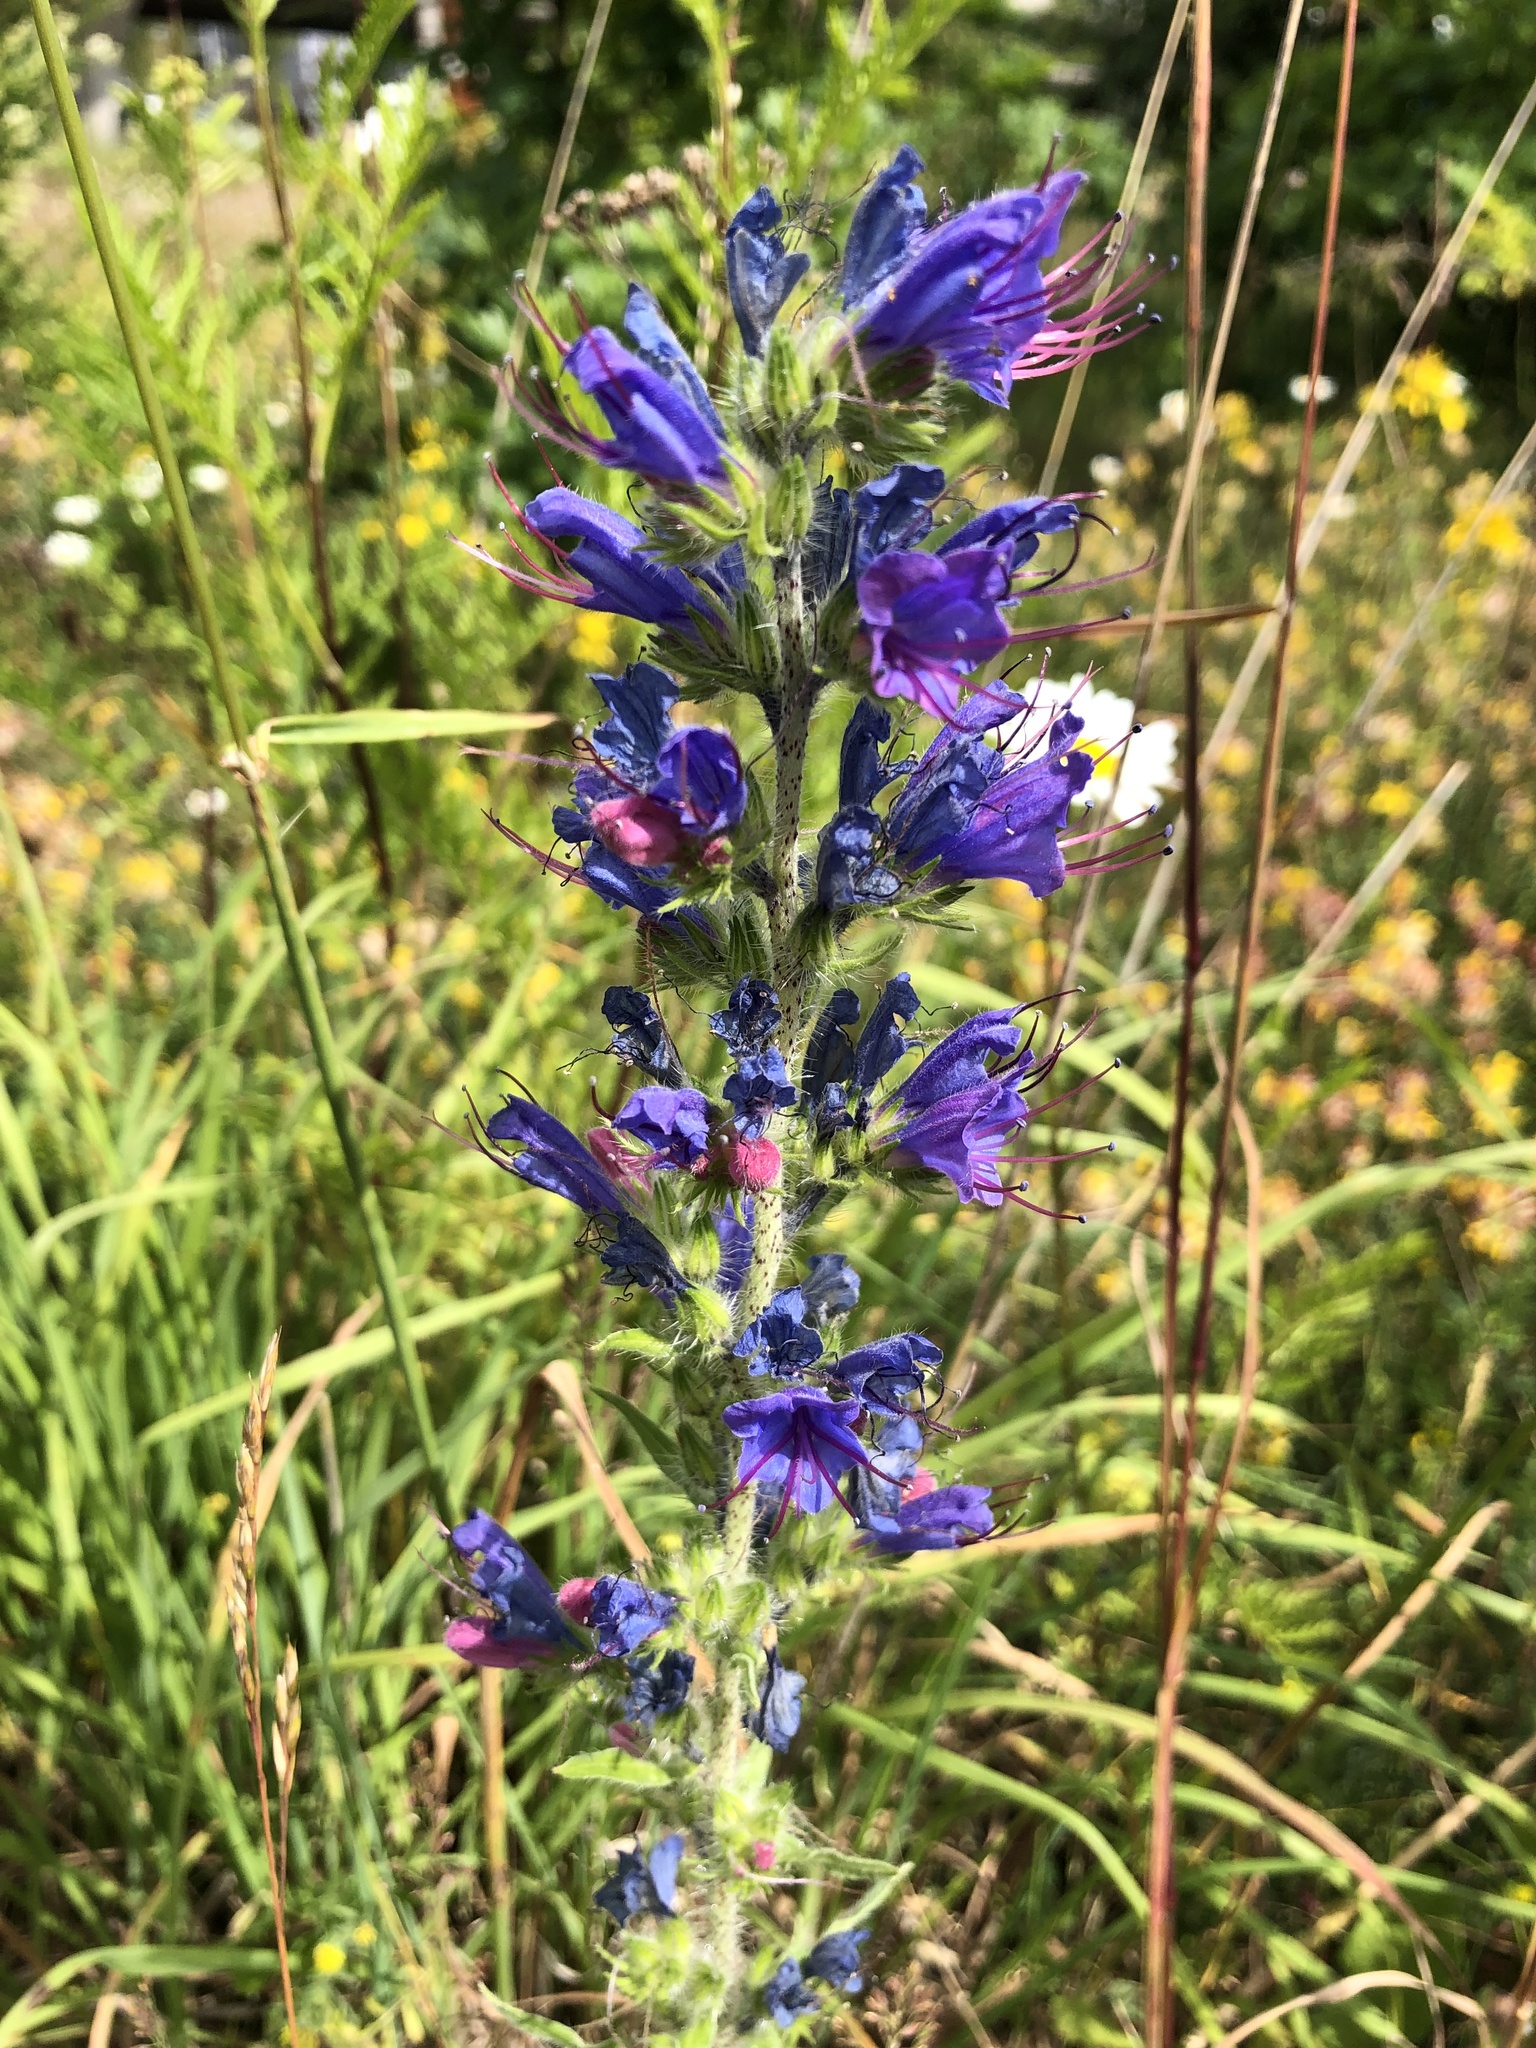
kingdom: Plantae
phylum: Tracheophyta
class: Magnoliopsida
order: Boraginales
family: Boraginaceae
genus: Echium
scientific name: Echium vulgare
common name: Common viper's bugloss
